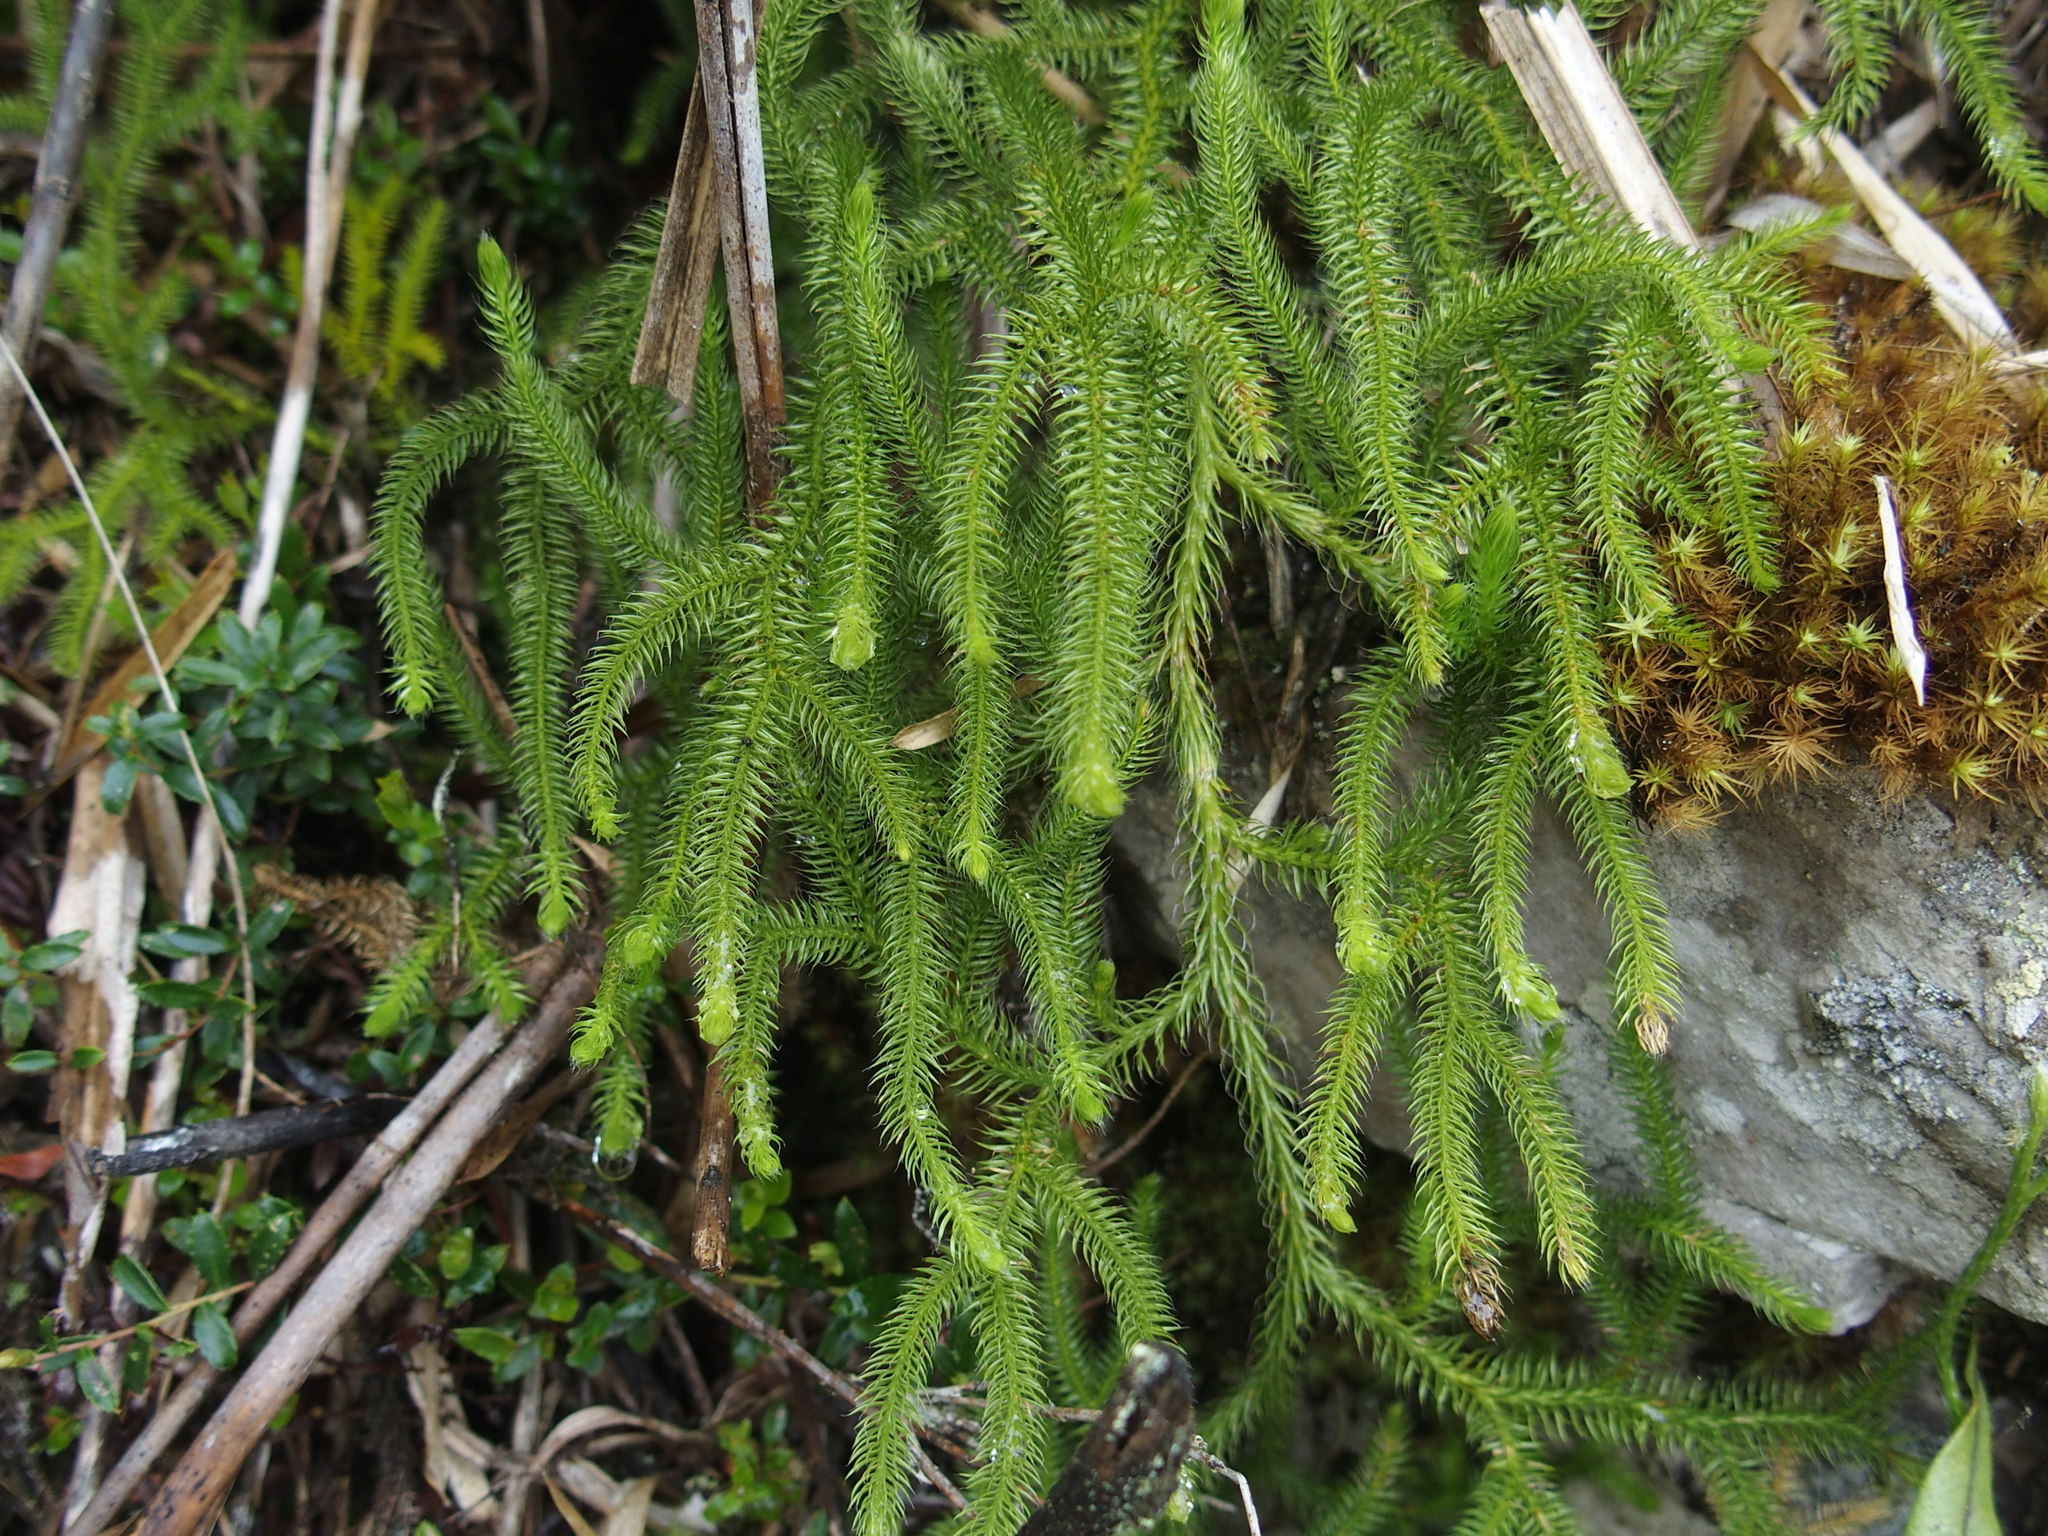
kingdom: Plantae
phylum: Tracheophyta
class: Lycopodiopsida
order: Lycopodiales
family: Lycopodiaceae
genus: Palhinhaea
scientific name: Palhinhaea cernua
